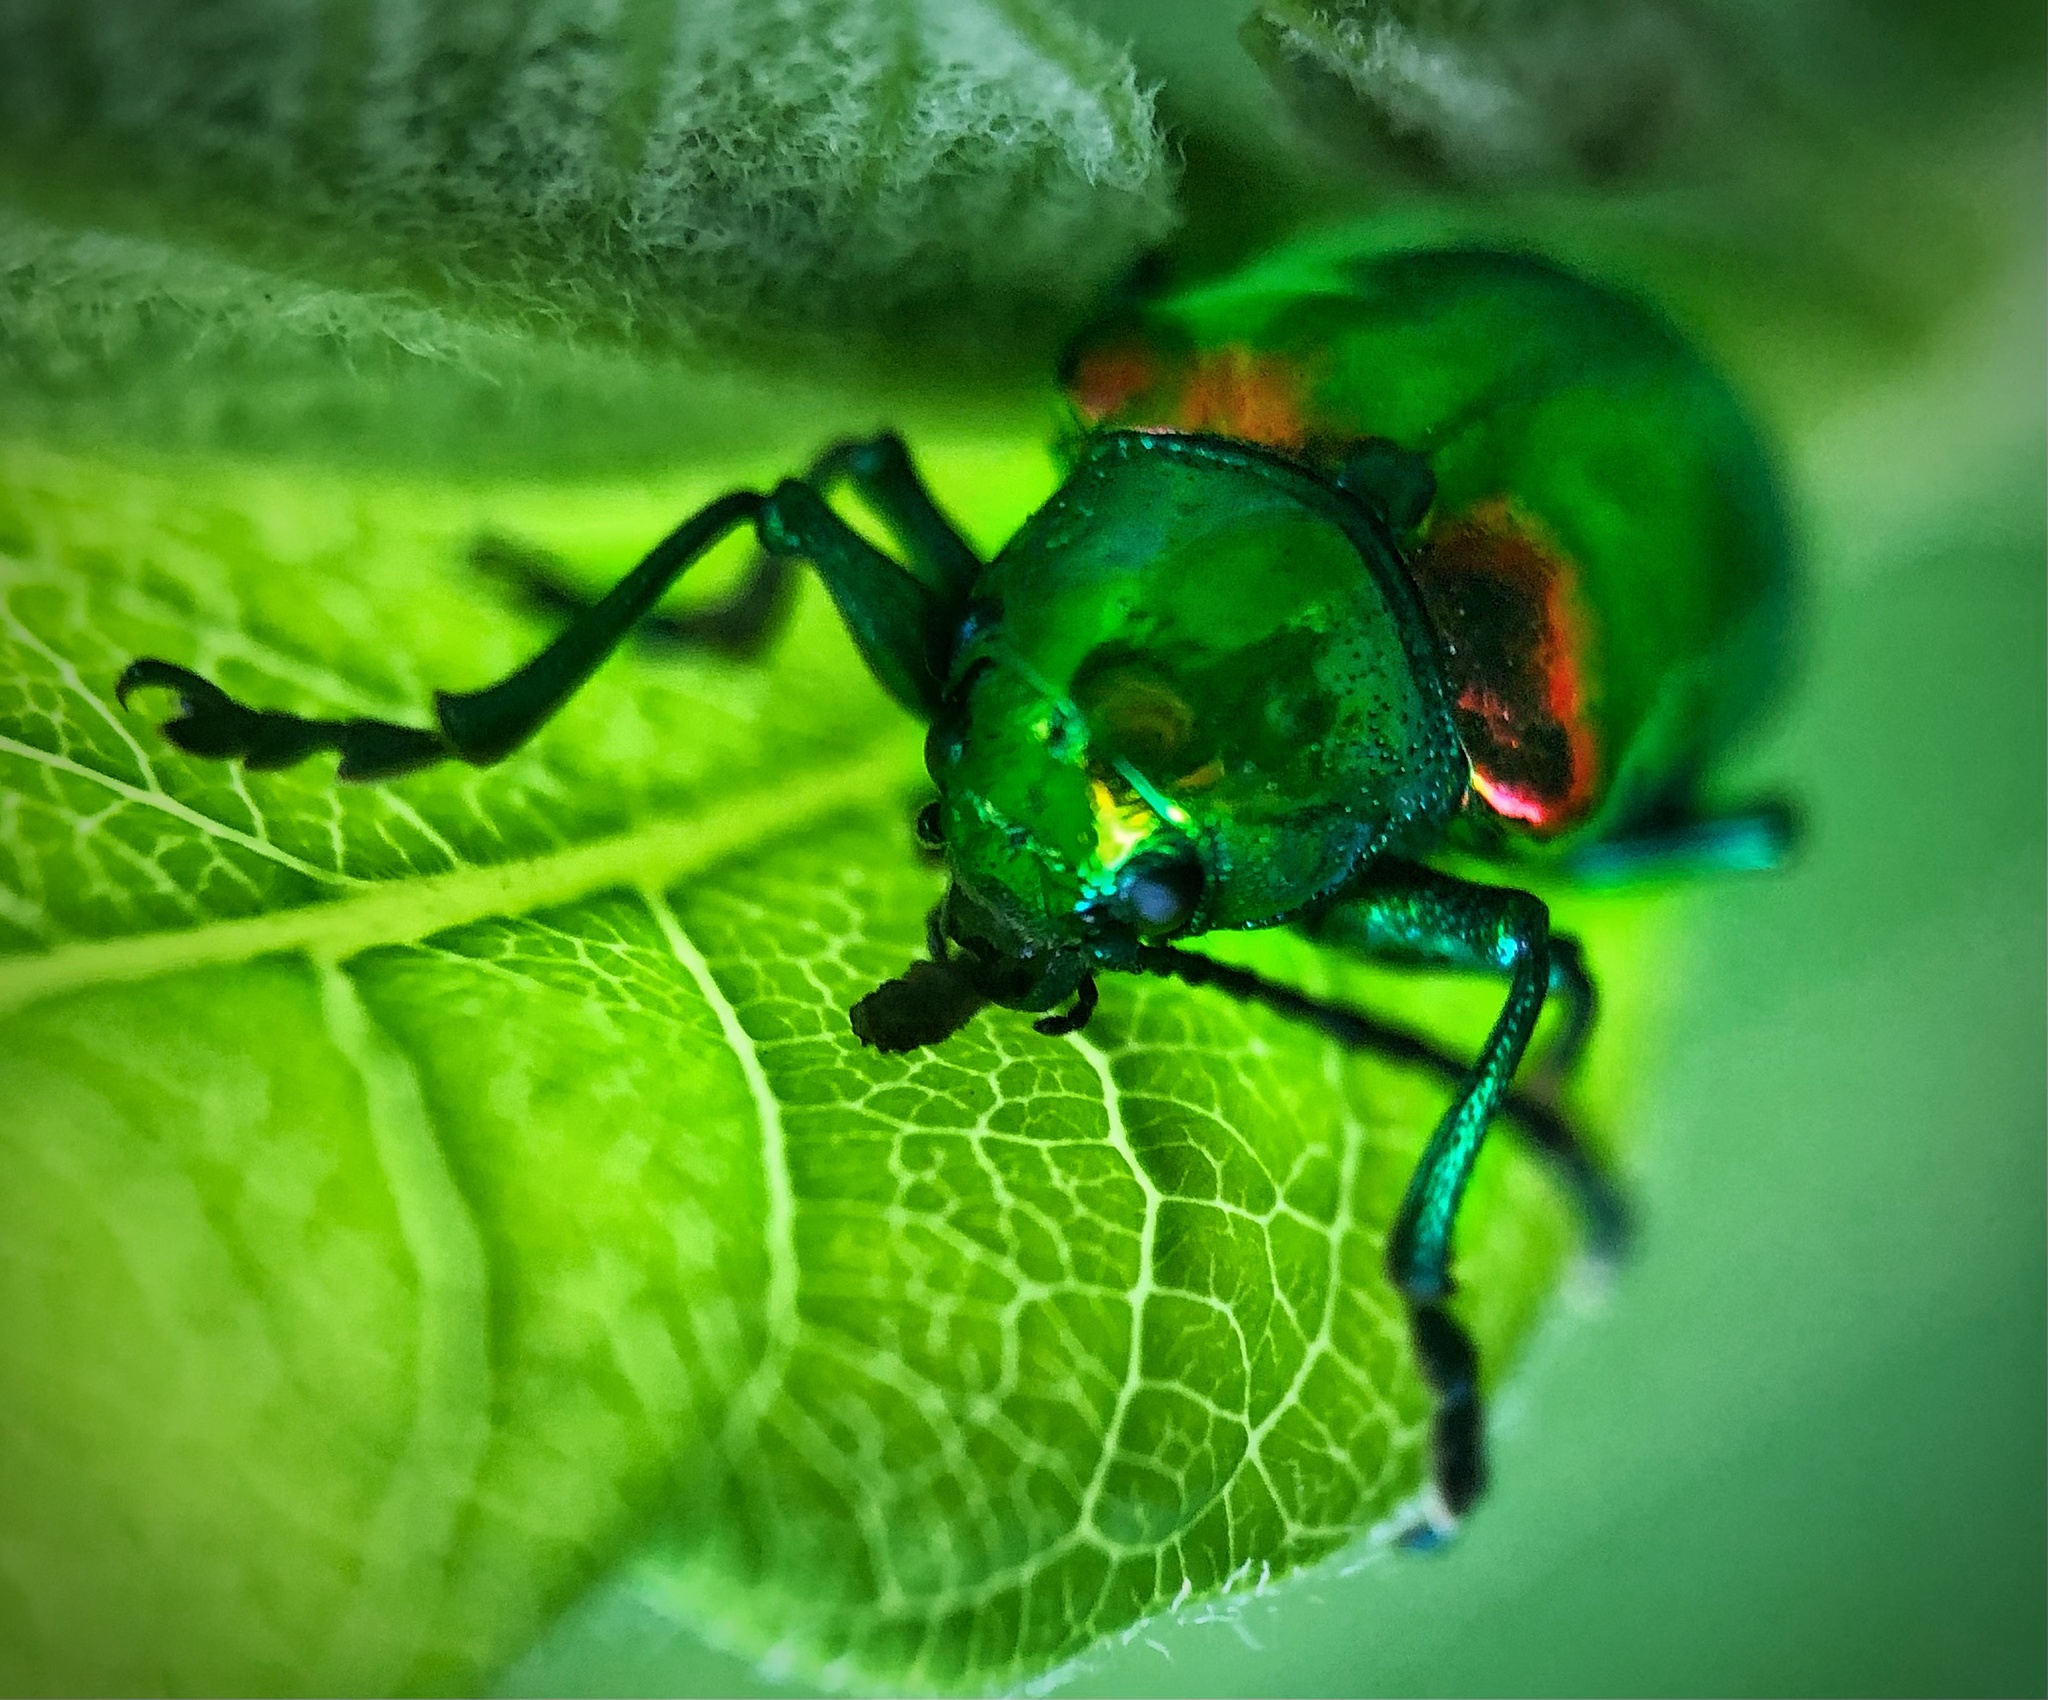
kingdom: Animalia
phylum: Arthropoda
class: Insecta
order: Coleoptera
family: Chrysomelidae
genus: Chrysochus
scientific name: Chrysochus auratus
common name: Dogbane leaf beetle
